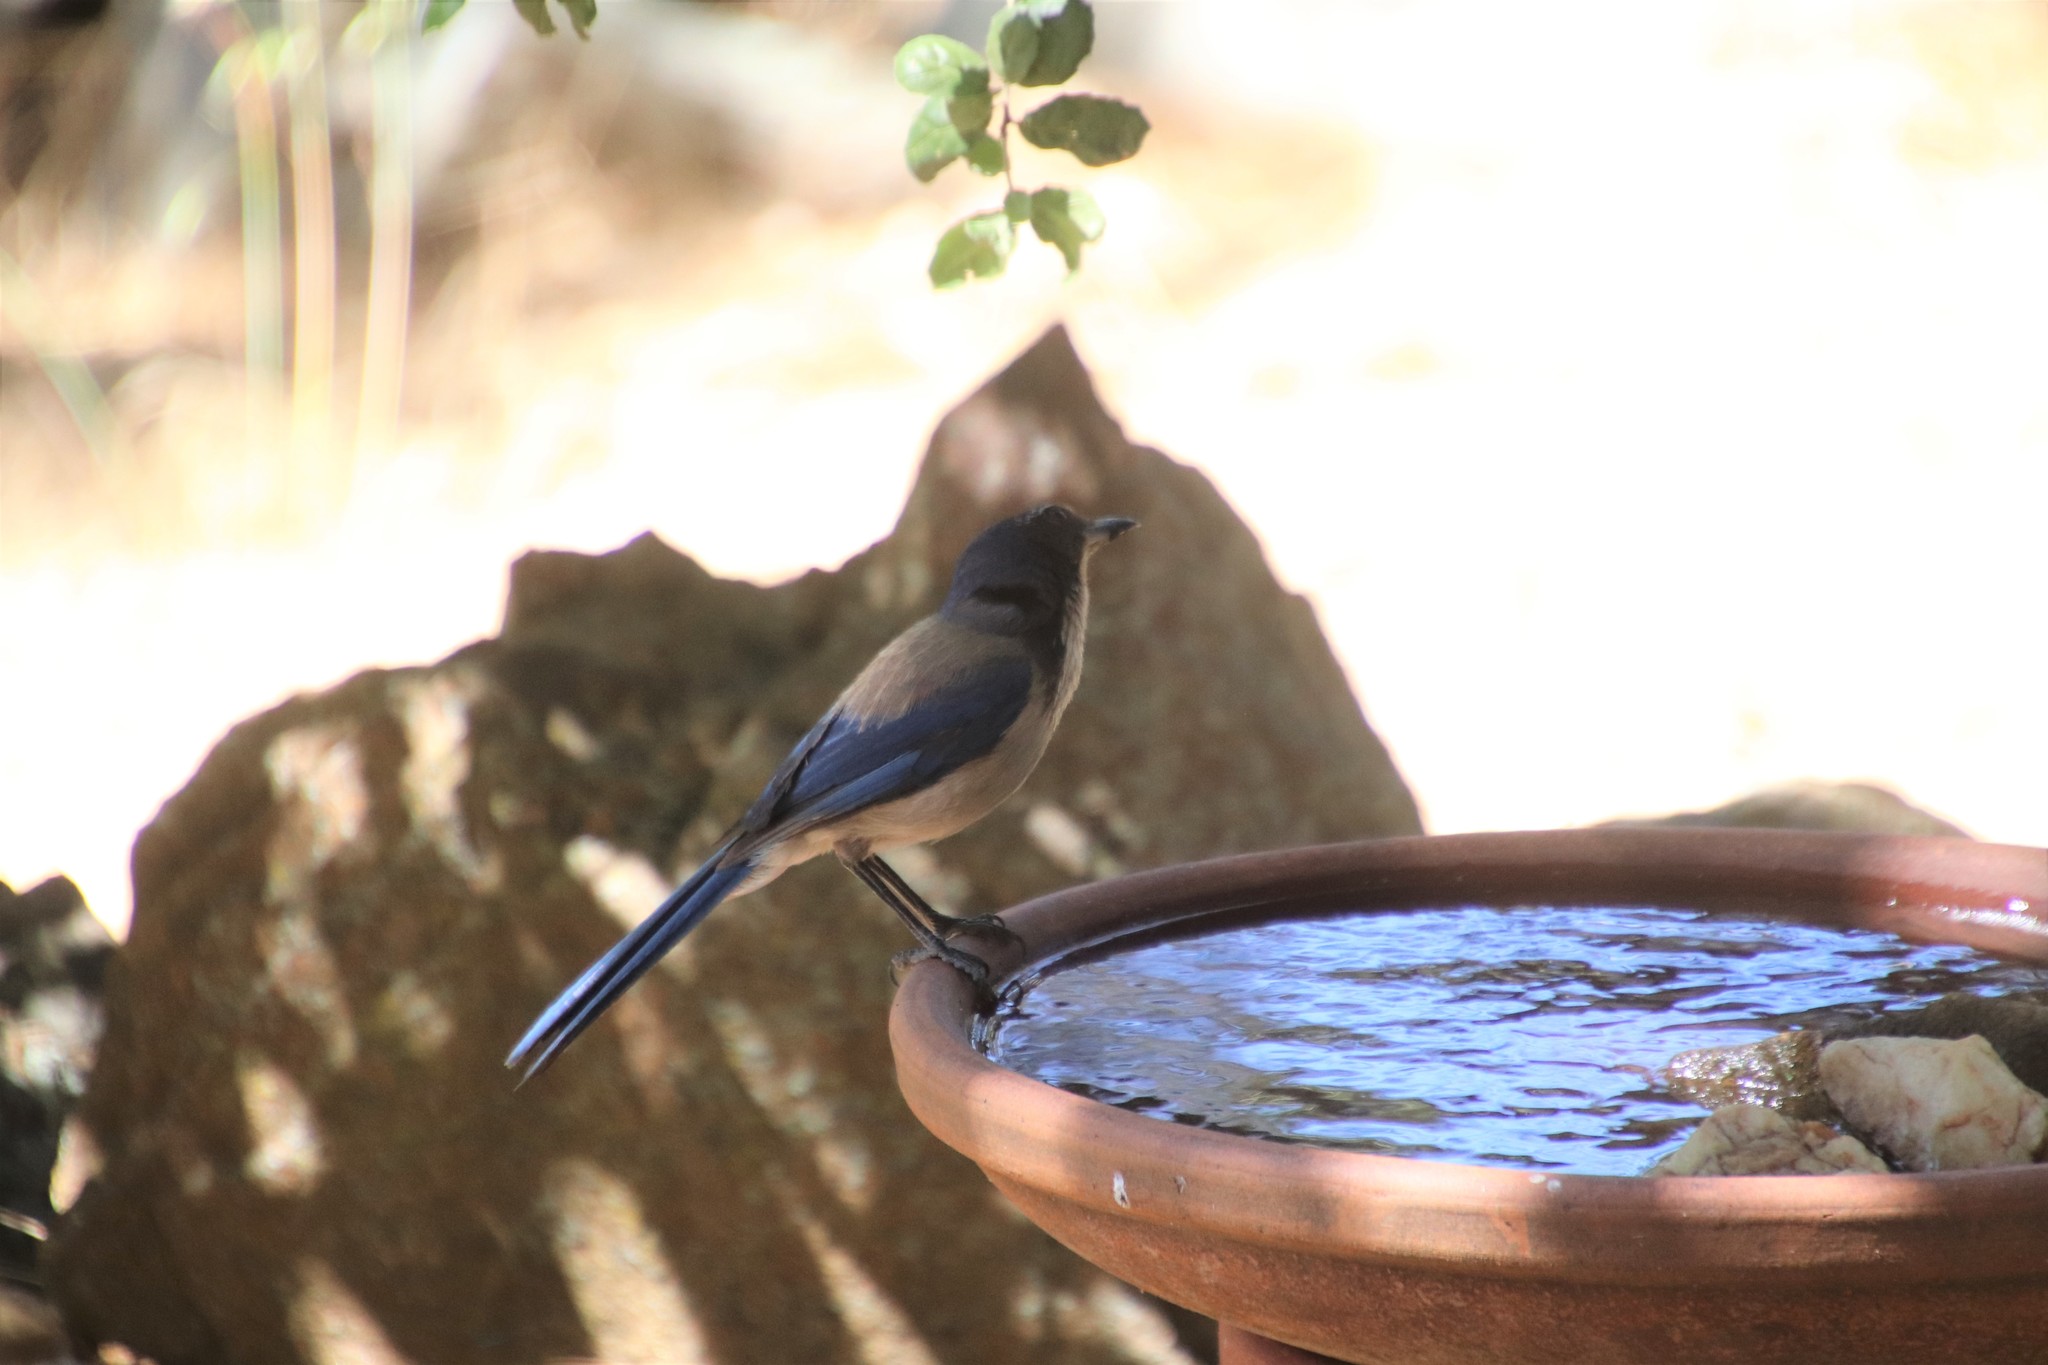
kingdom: Animalia
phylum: Chordata
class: Aves
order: Passeriformes
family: Corvidae
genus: Aphelocoma
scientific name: Aphelocoma californica
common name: California scrub-jay
